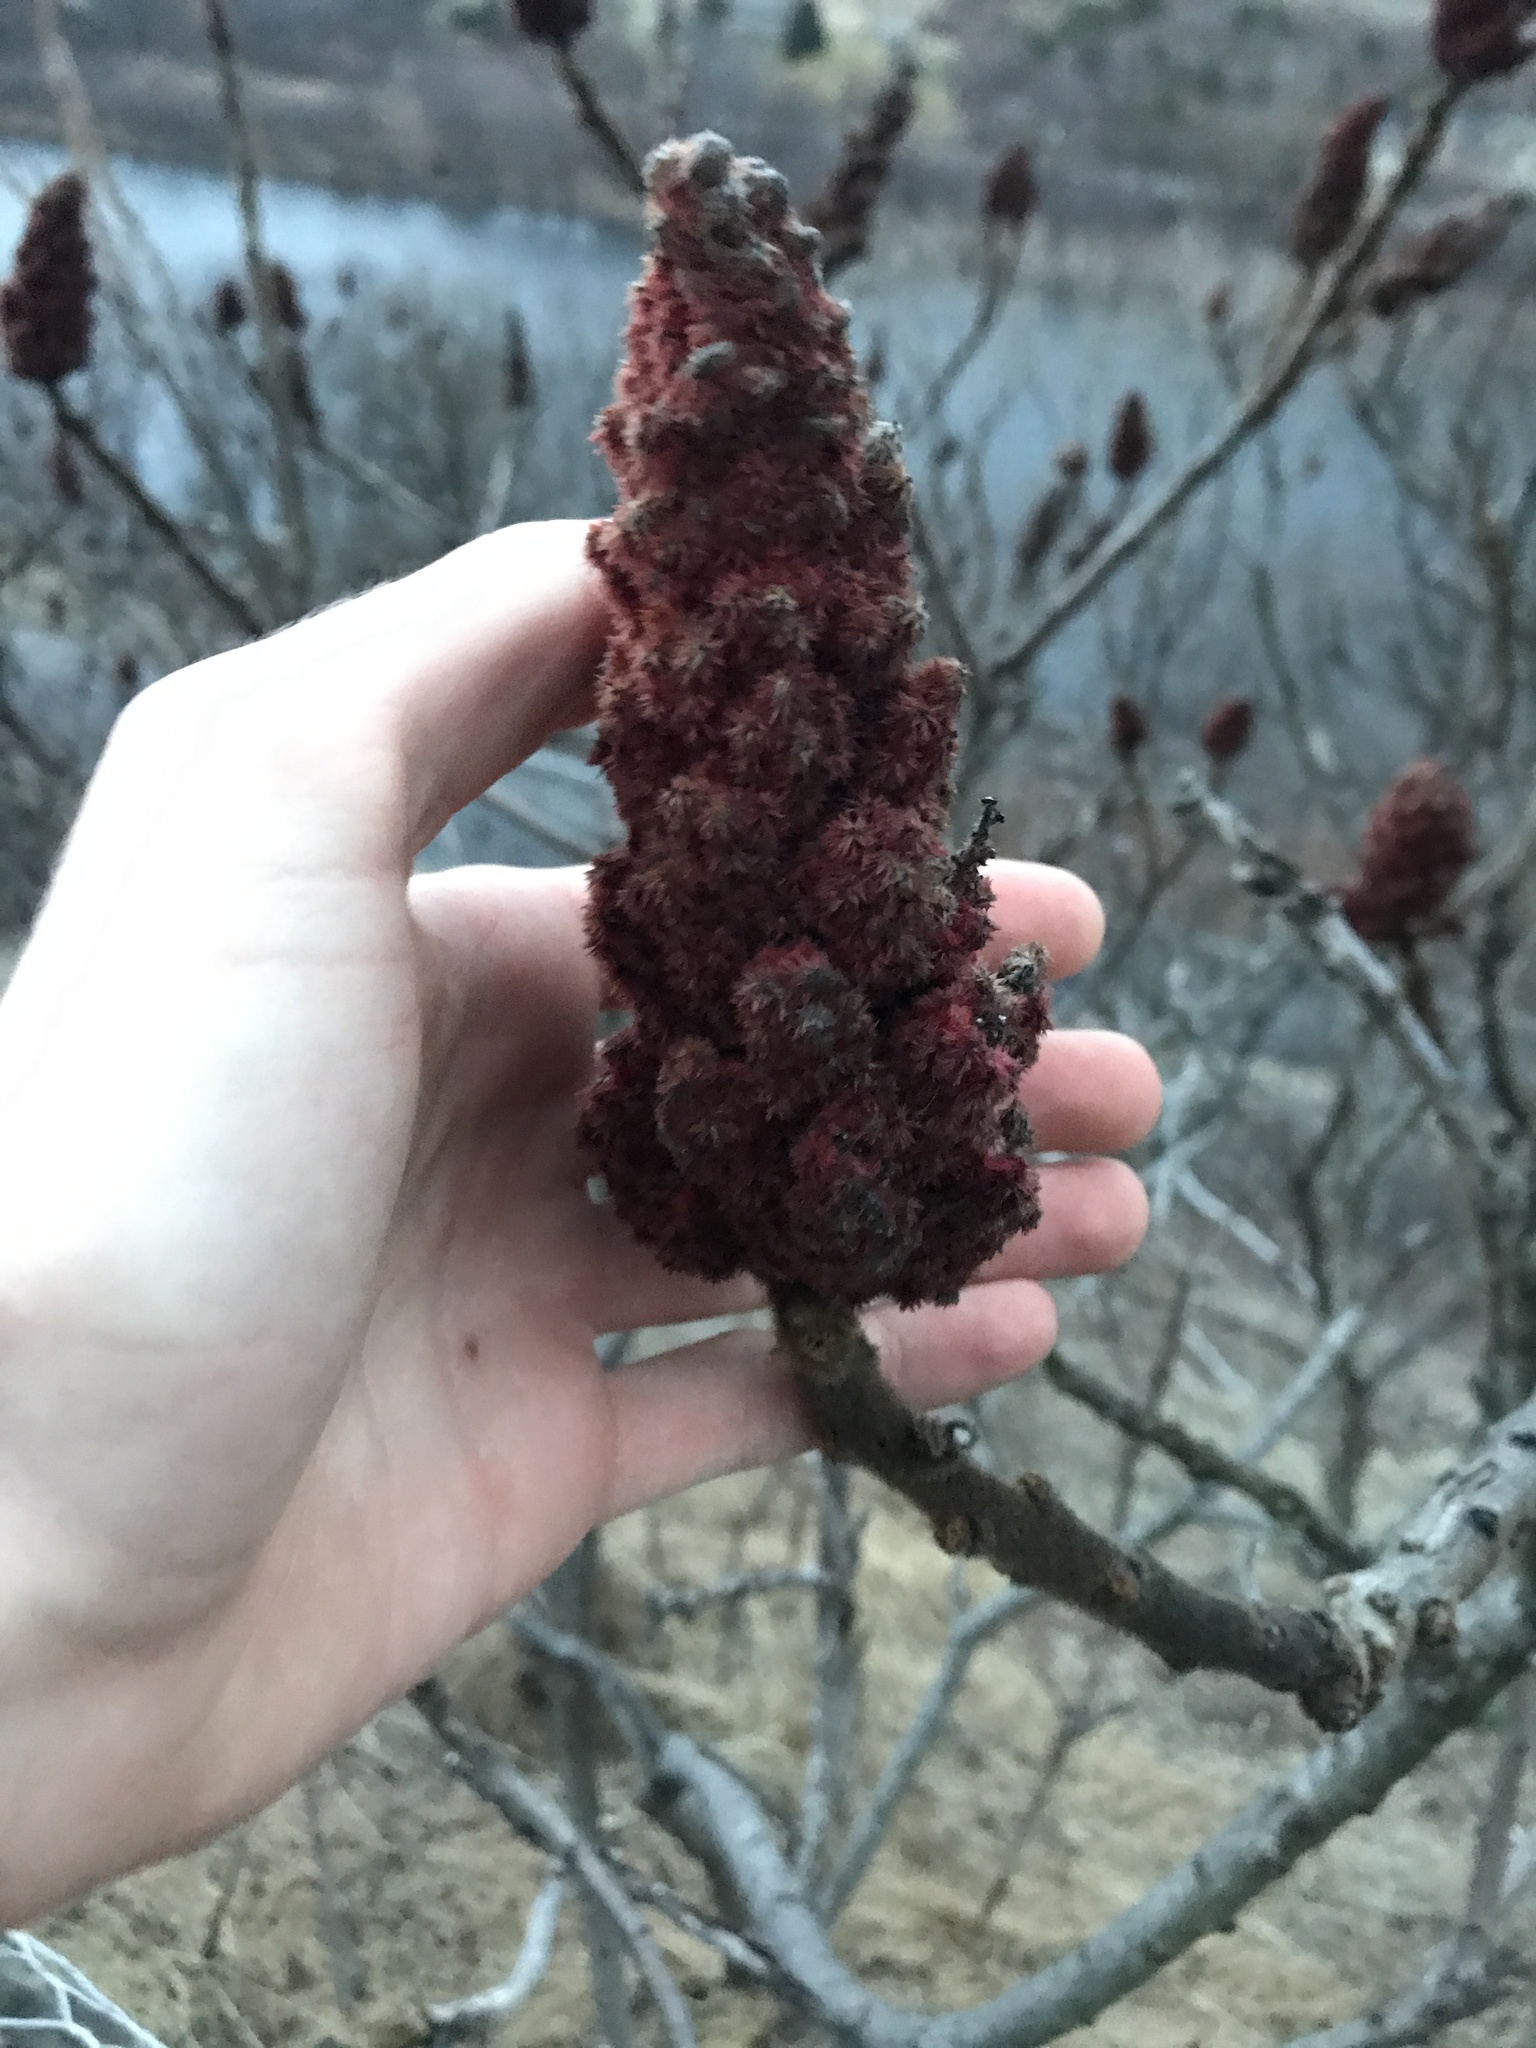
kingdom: Plantae
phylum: Tracheophyta
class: Magnoliopsida
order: Sapindales
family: Anacardiaceae
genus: Rhus
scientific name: Rhus typhina
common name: Staghorn sumac
